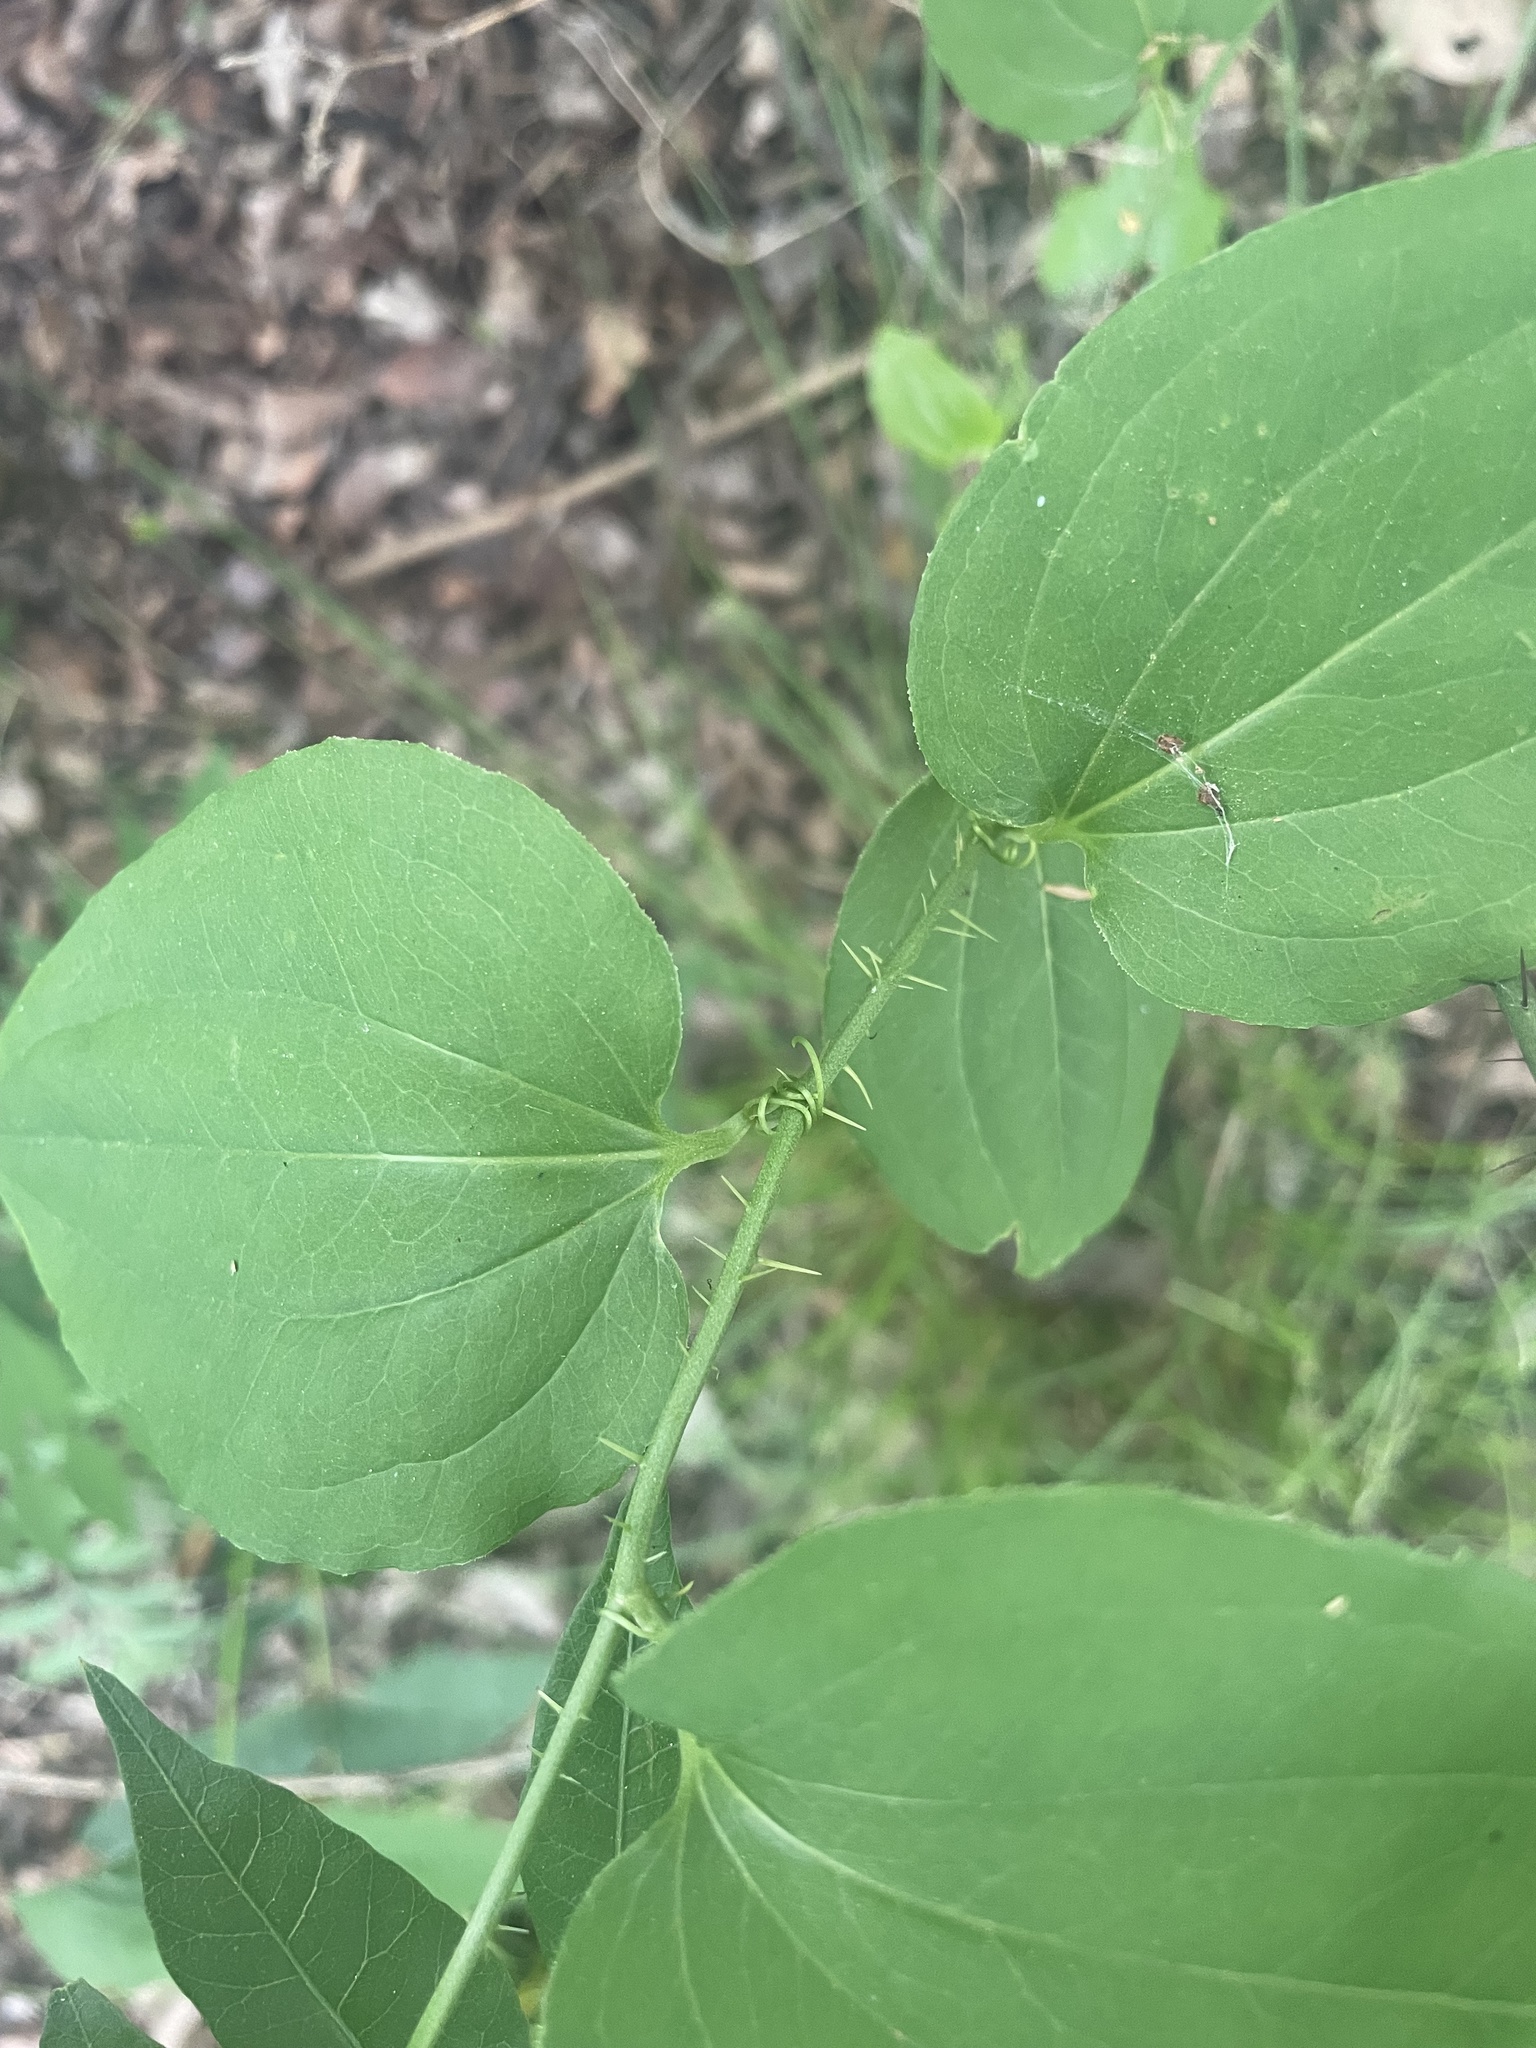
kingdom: Plantae
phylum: Tracheophyta
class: Liliopsida
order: Liliales
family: Smilacaceae
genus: Smilax
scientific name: Smilax tamnoides
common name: Hellfetter
